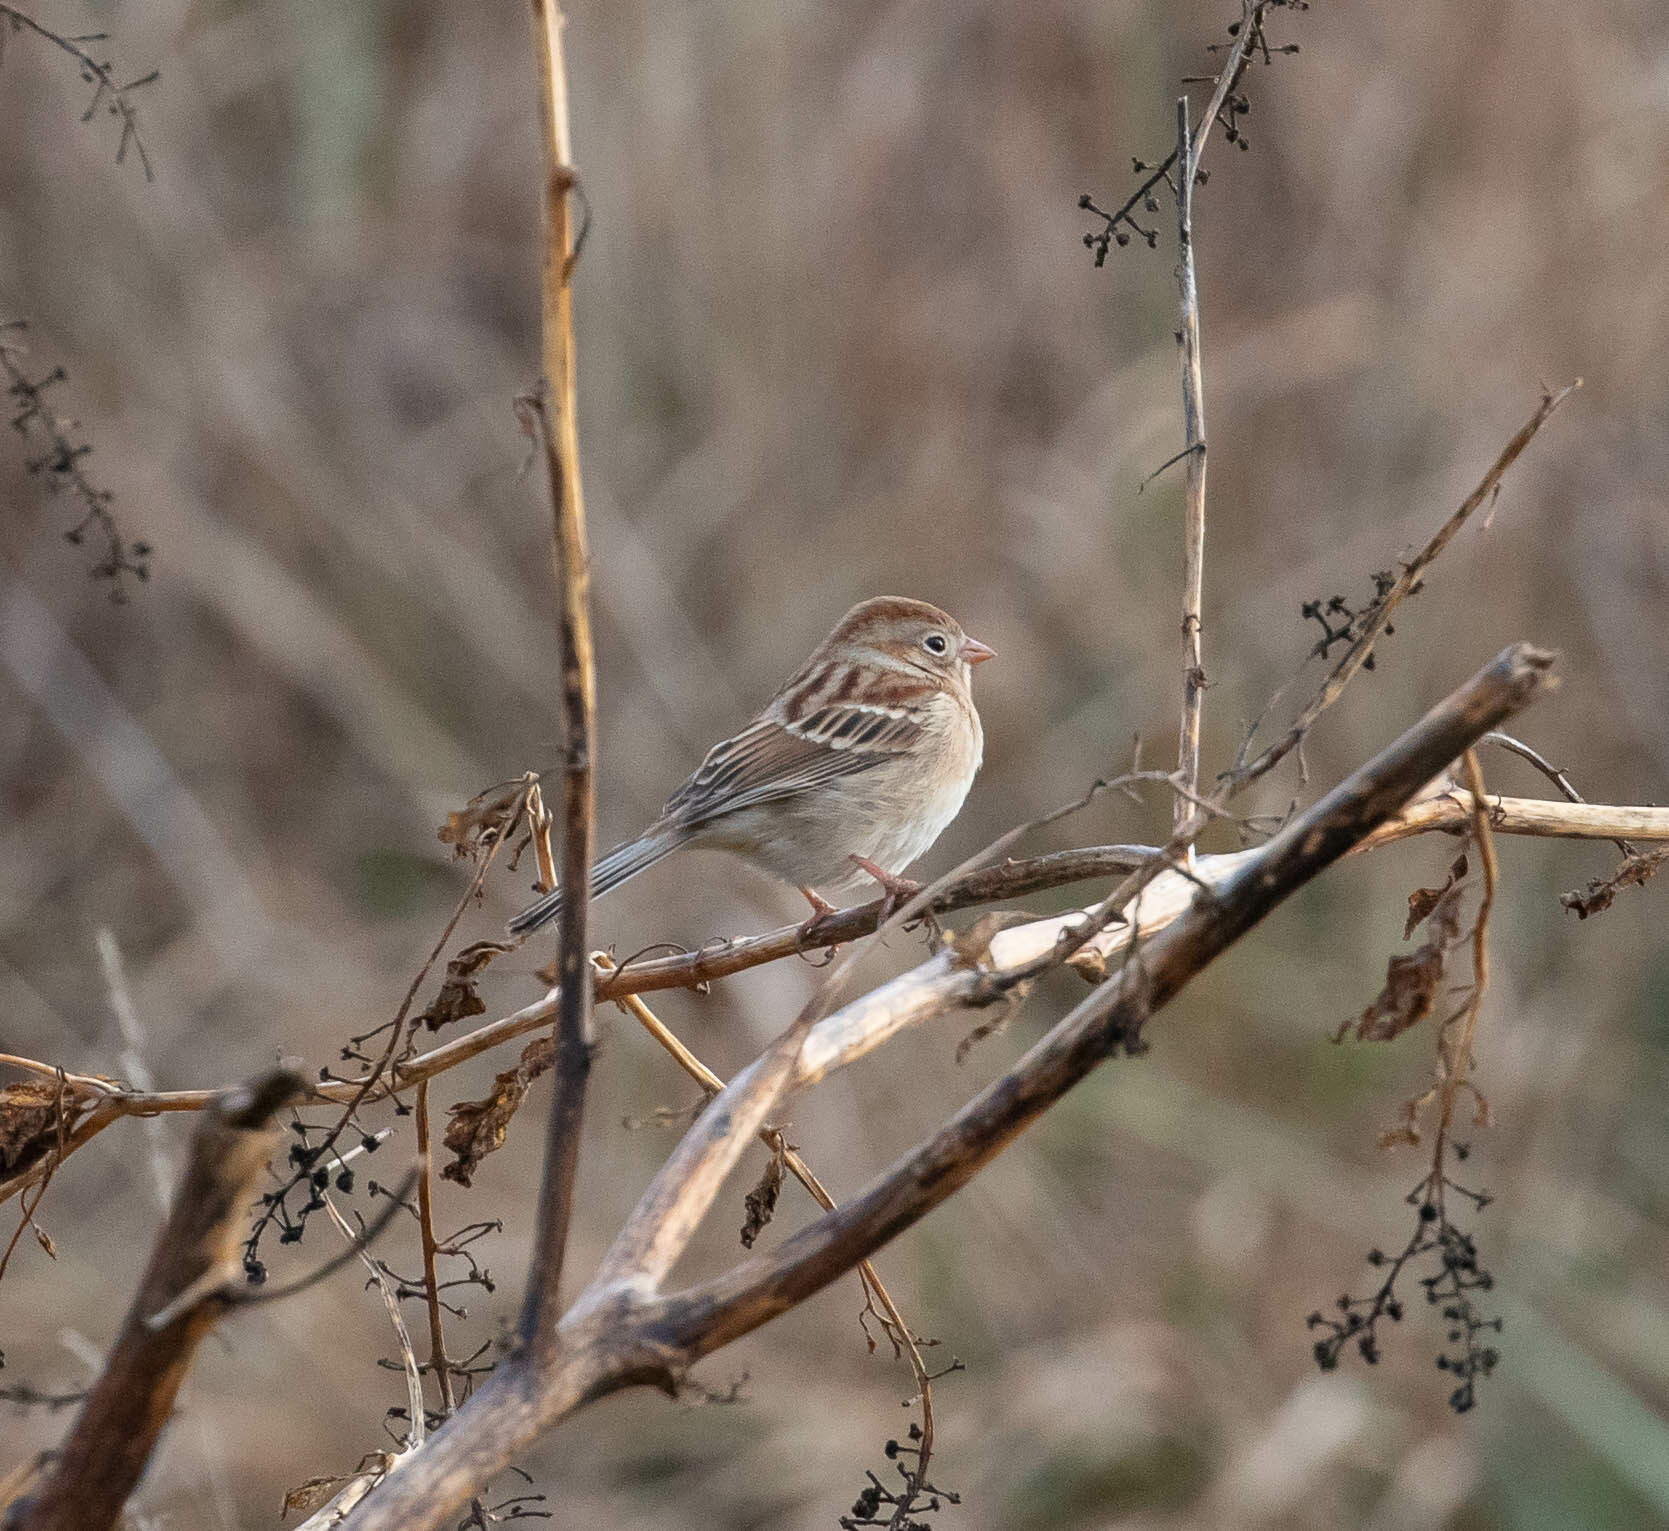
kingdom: Animalia
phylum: Chordata
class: Aves
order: Passeriformes
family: Passerellidae
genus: Spizella
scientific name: Spizella pusilla
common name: Field sparrow
